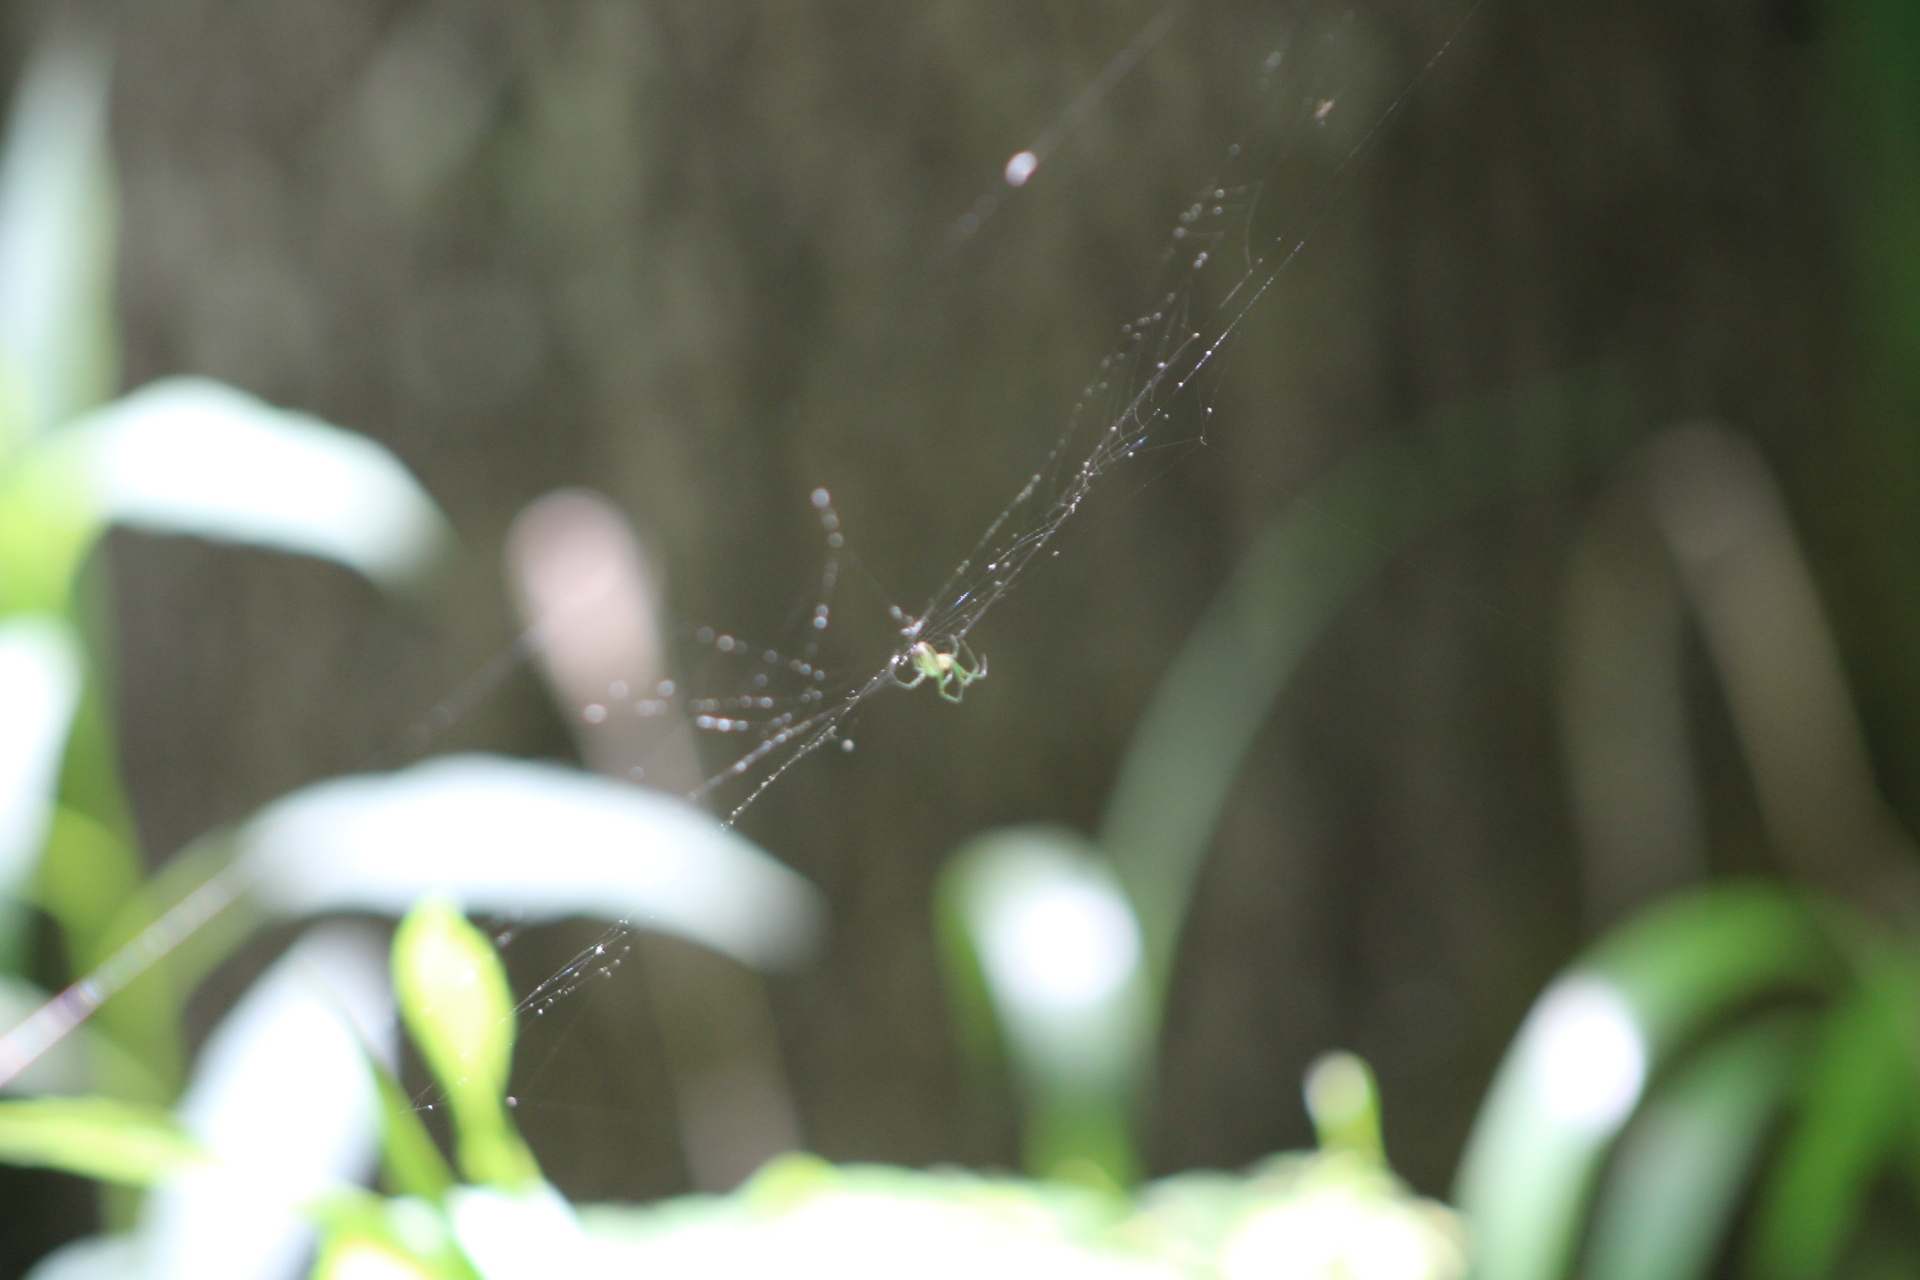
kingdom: Animalia
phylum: Arthropoda
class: Arachnida
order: Araneae
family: Tetragnathidae
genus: Leucauge
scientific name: Leucauge venusta
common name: Longjawed orb weavers
